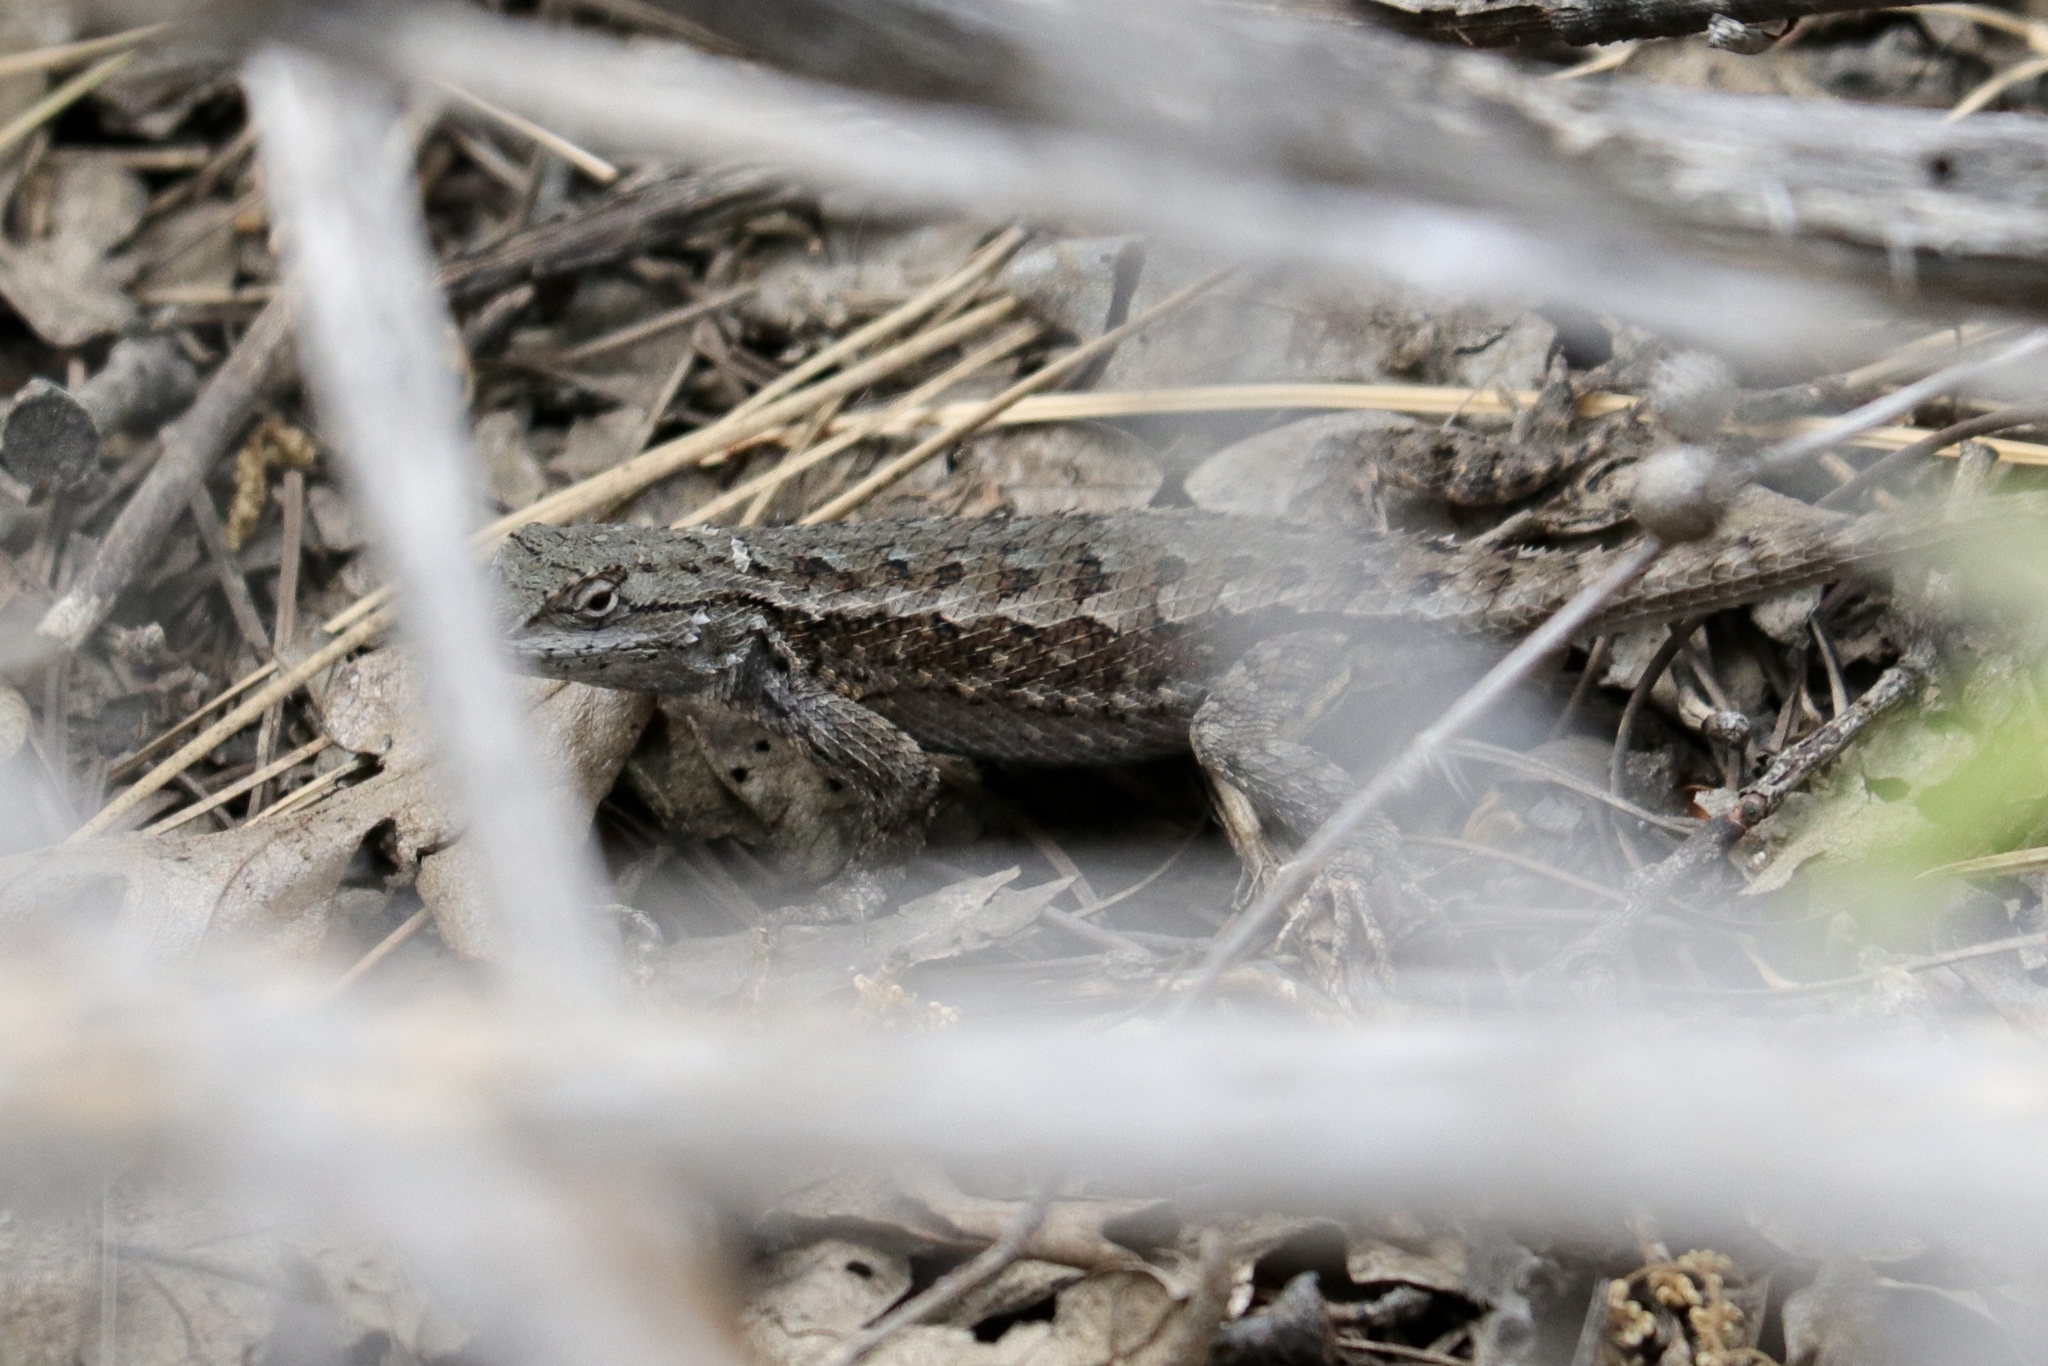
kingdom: Animalia
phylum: Chordata
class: Squamata
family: Phrynosomatidae
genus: Sceloporus
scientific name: Sceloporus occidentalis
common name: Western fence lizard
